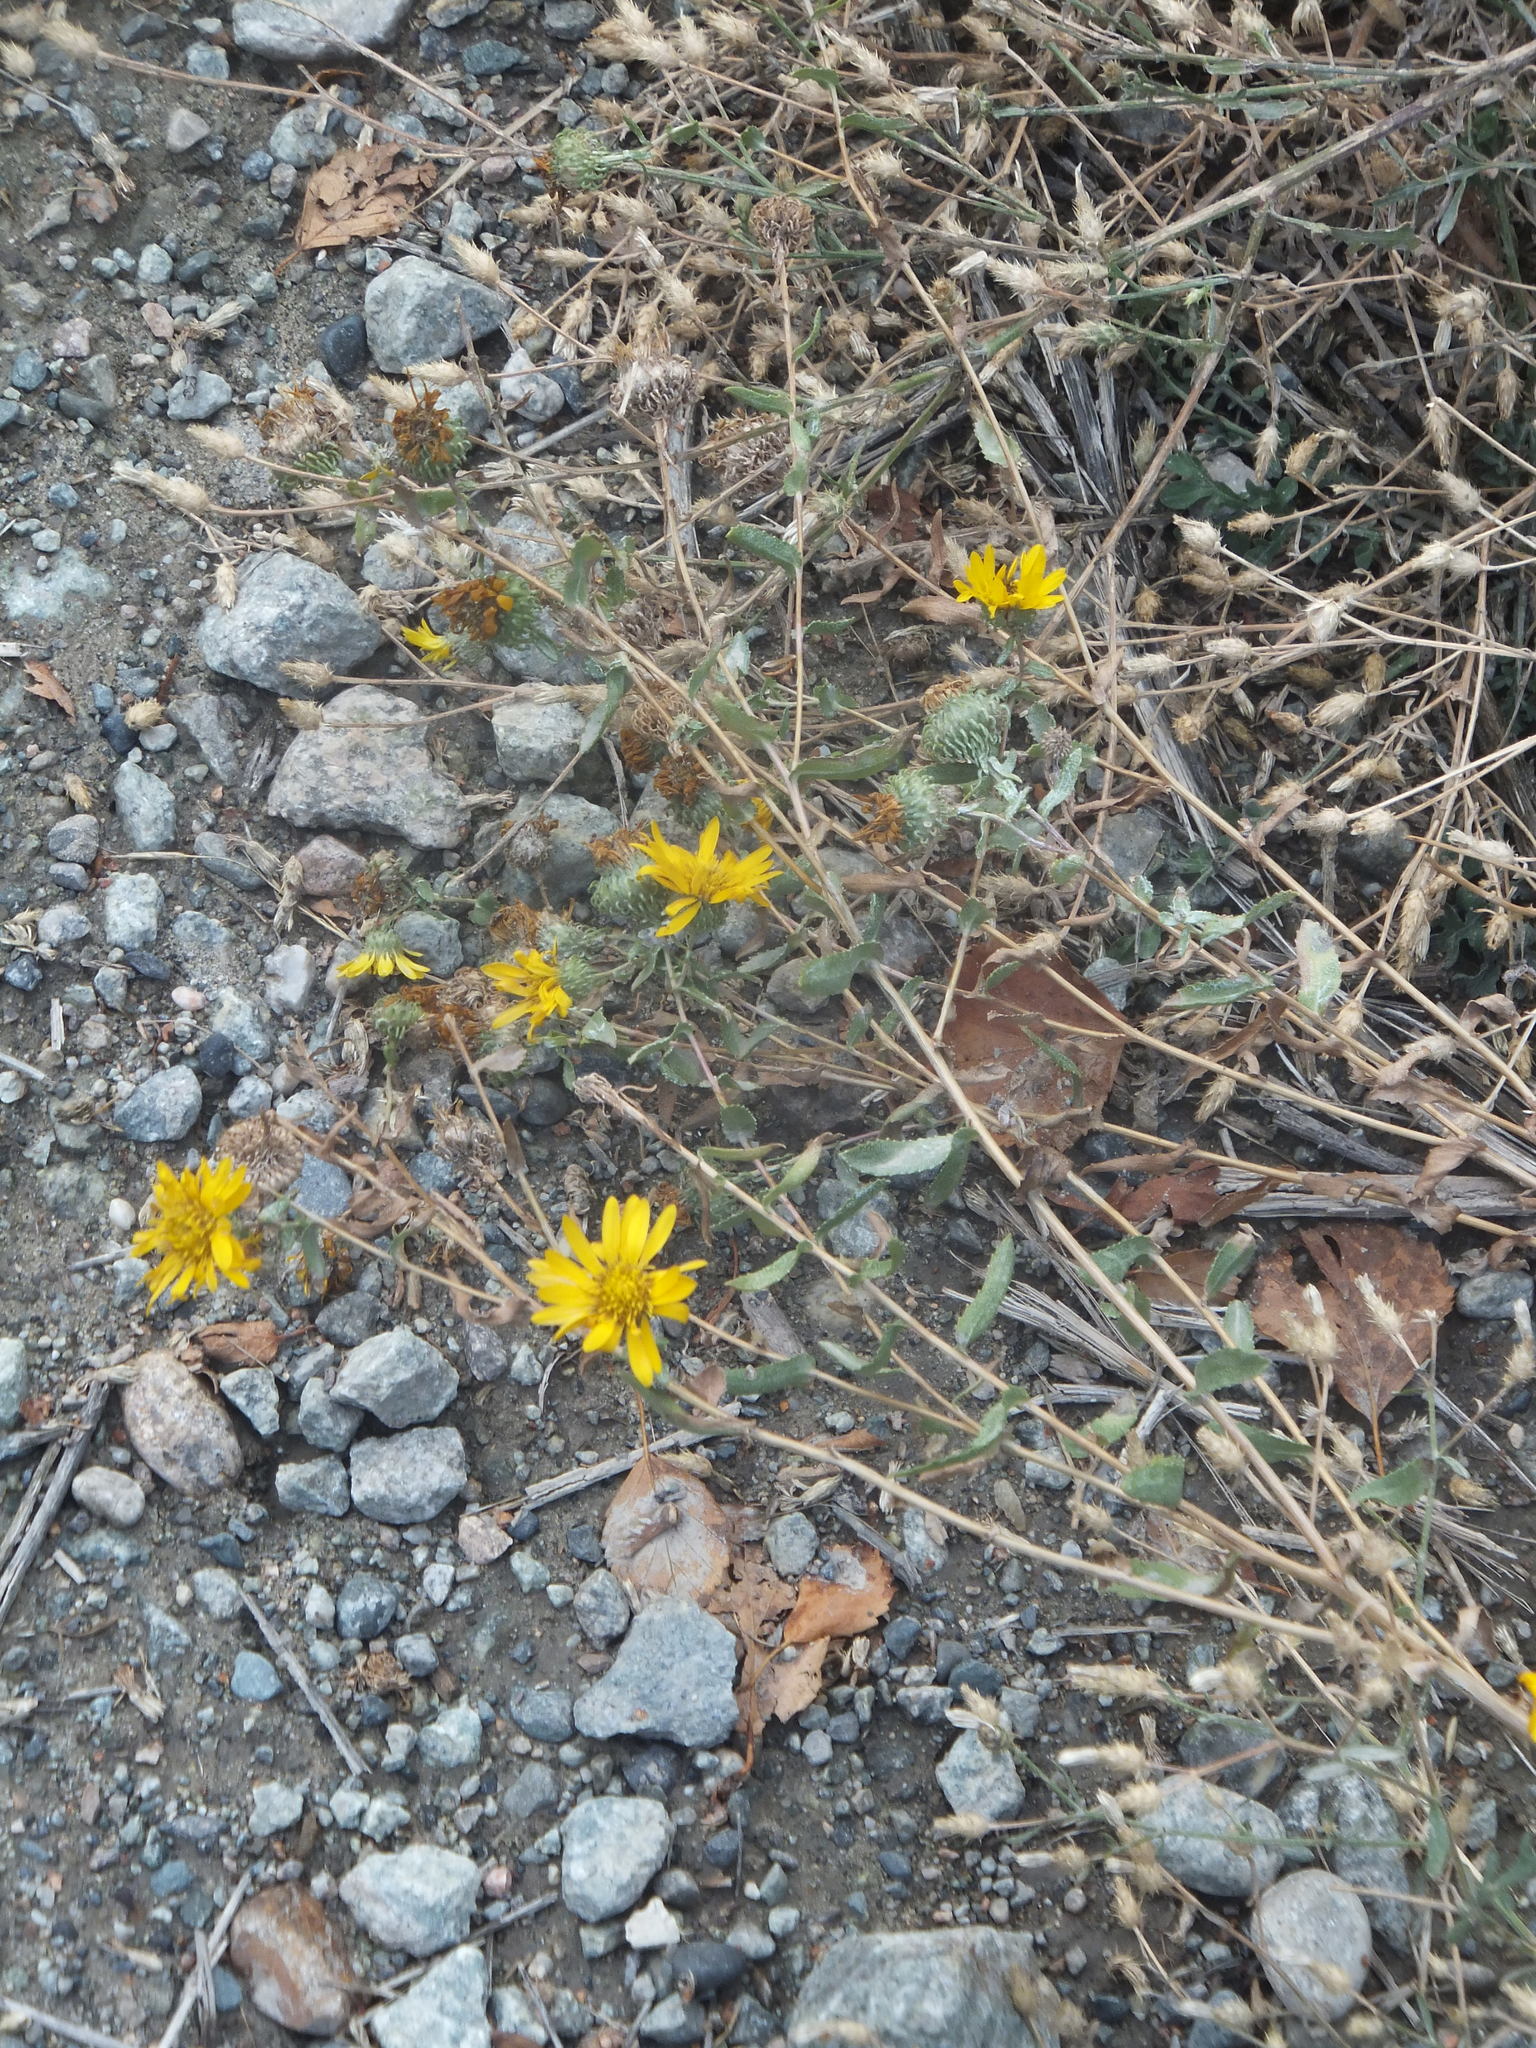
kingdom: Plantae
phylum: Tracheophyta
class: Magnoliopsida
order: Asterales
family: Asteraceae
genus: Grindelia
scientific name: Grindelia squarrosa
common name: Curly-cup gumweed
